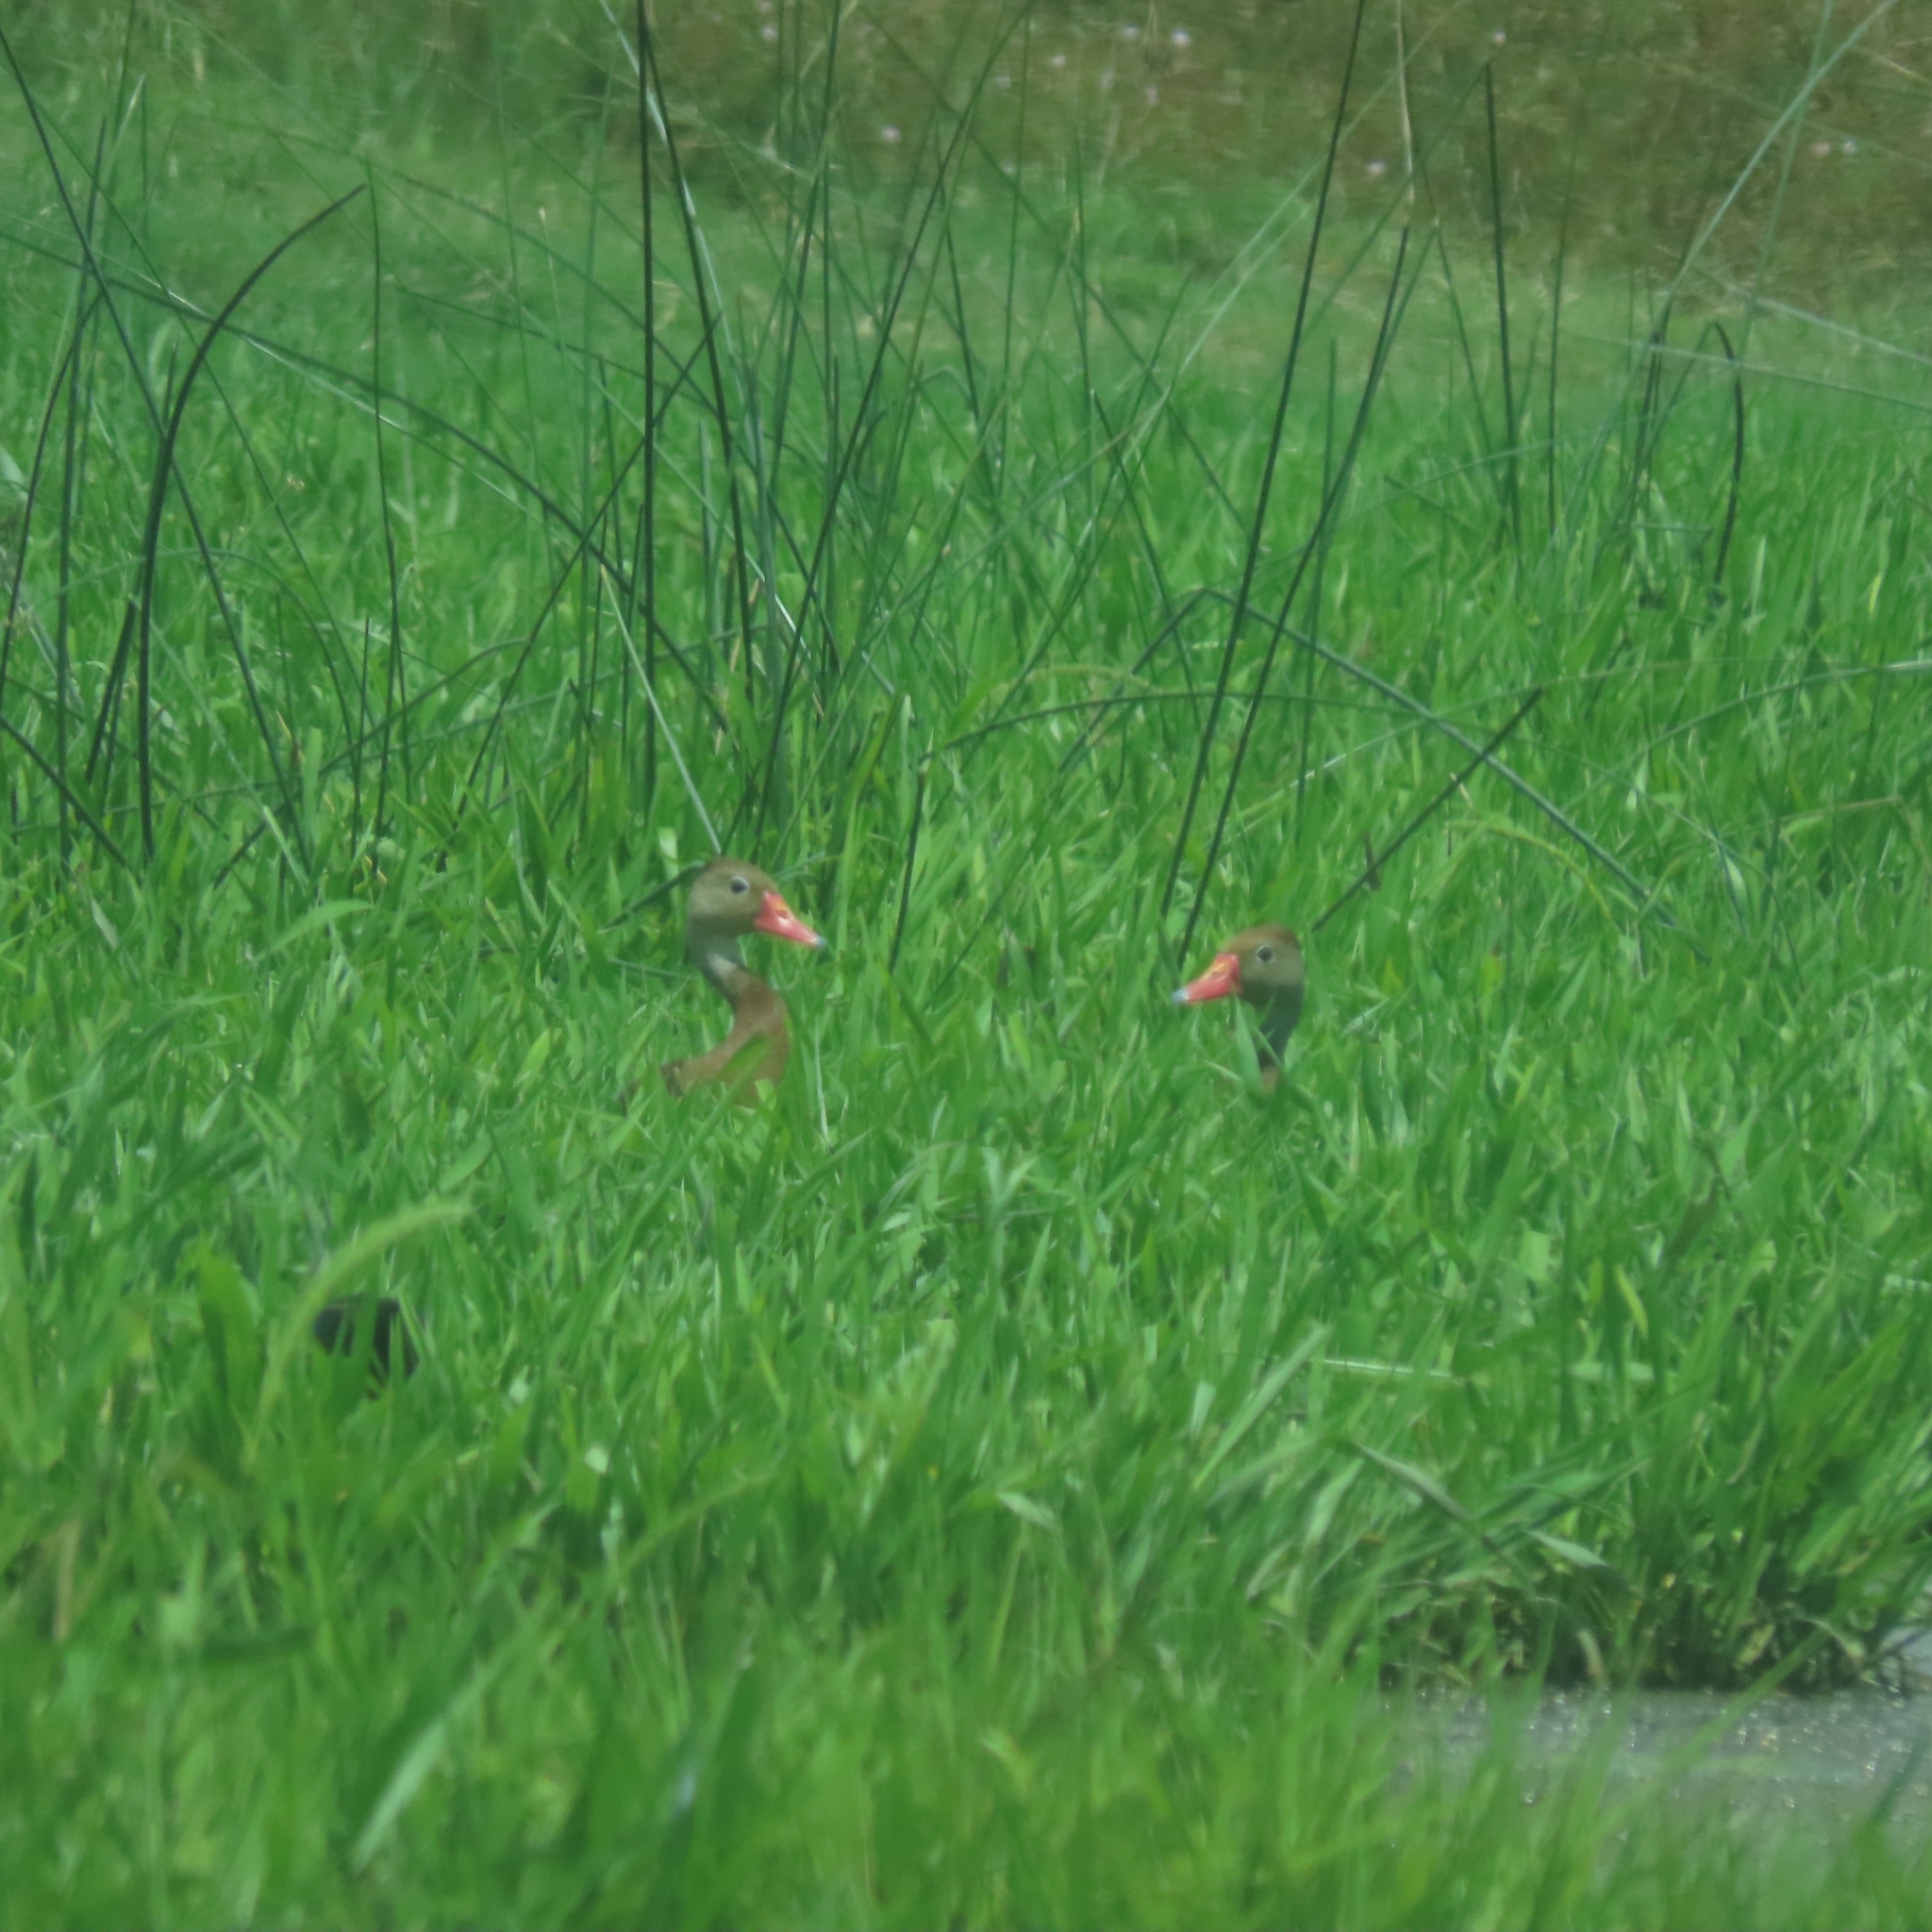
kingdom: Animalia
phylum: Chordata
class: Aves
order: Anseriformes
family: Anatidae
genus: Dendrocygna
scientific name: Dendrocygna autumnalis
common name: Black-bellied whistling duck
